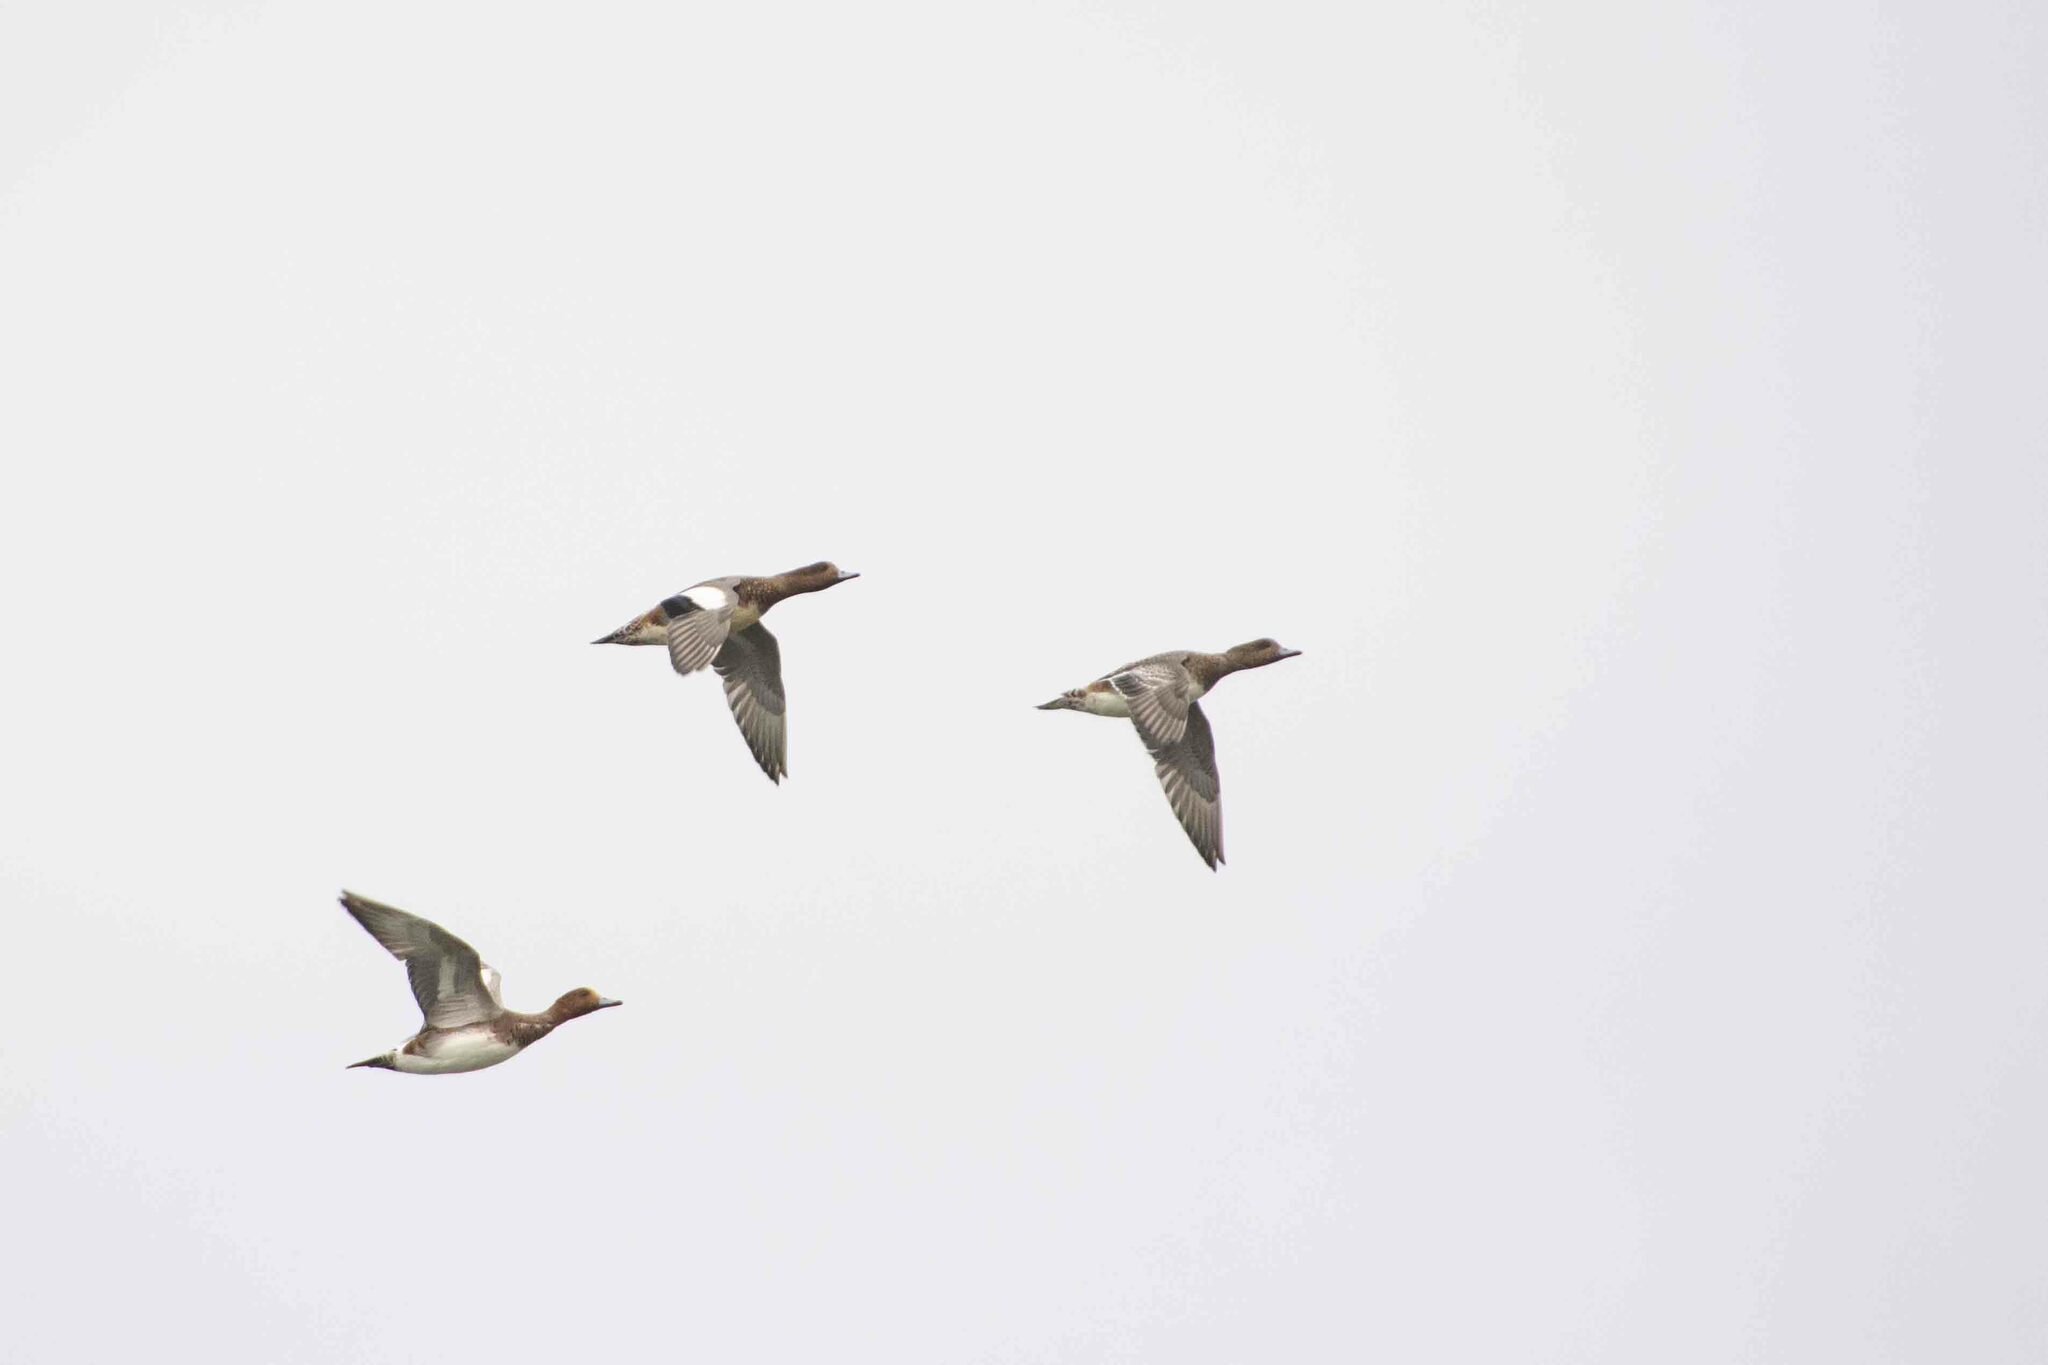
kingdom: Animalia
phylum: Chordata
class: Aves
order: Anseriformes
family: Anatidae
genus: Mareca
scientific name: Mareca penelope
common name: Eurasian wigeon
